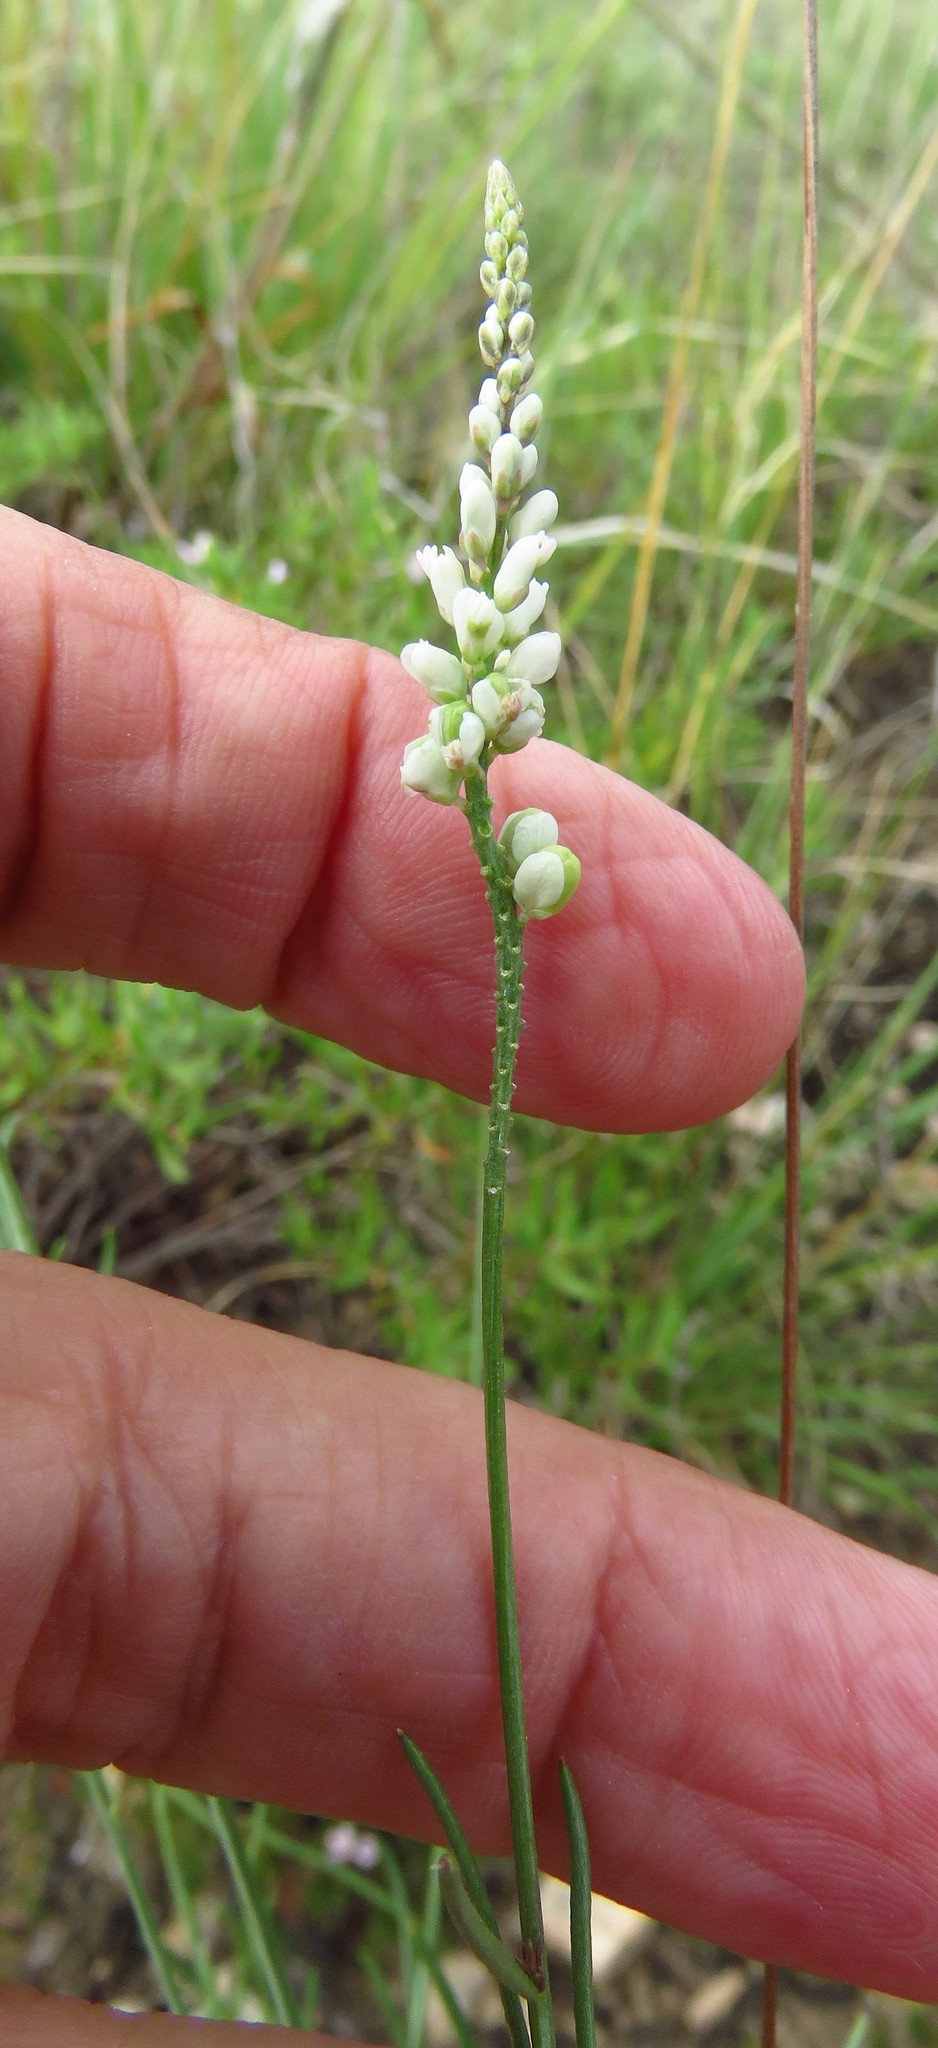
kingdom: Plantae
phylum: Tracheophyta
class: Magnoliopsida
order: Fabales
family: Polygalaceae
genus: Polygala
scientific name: Polygala alba
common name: White milkwort
